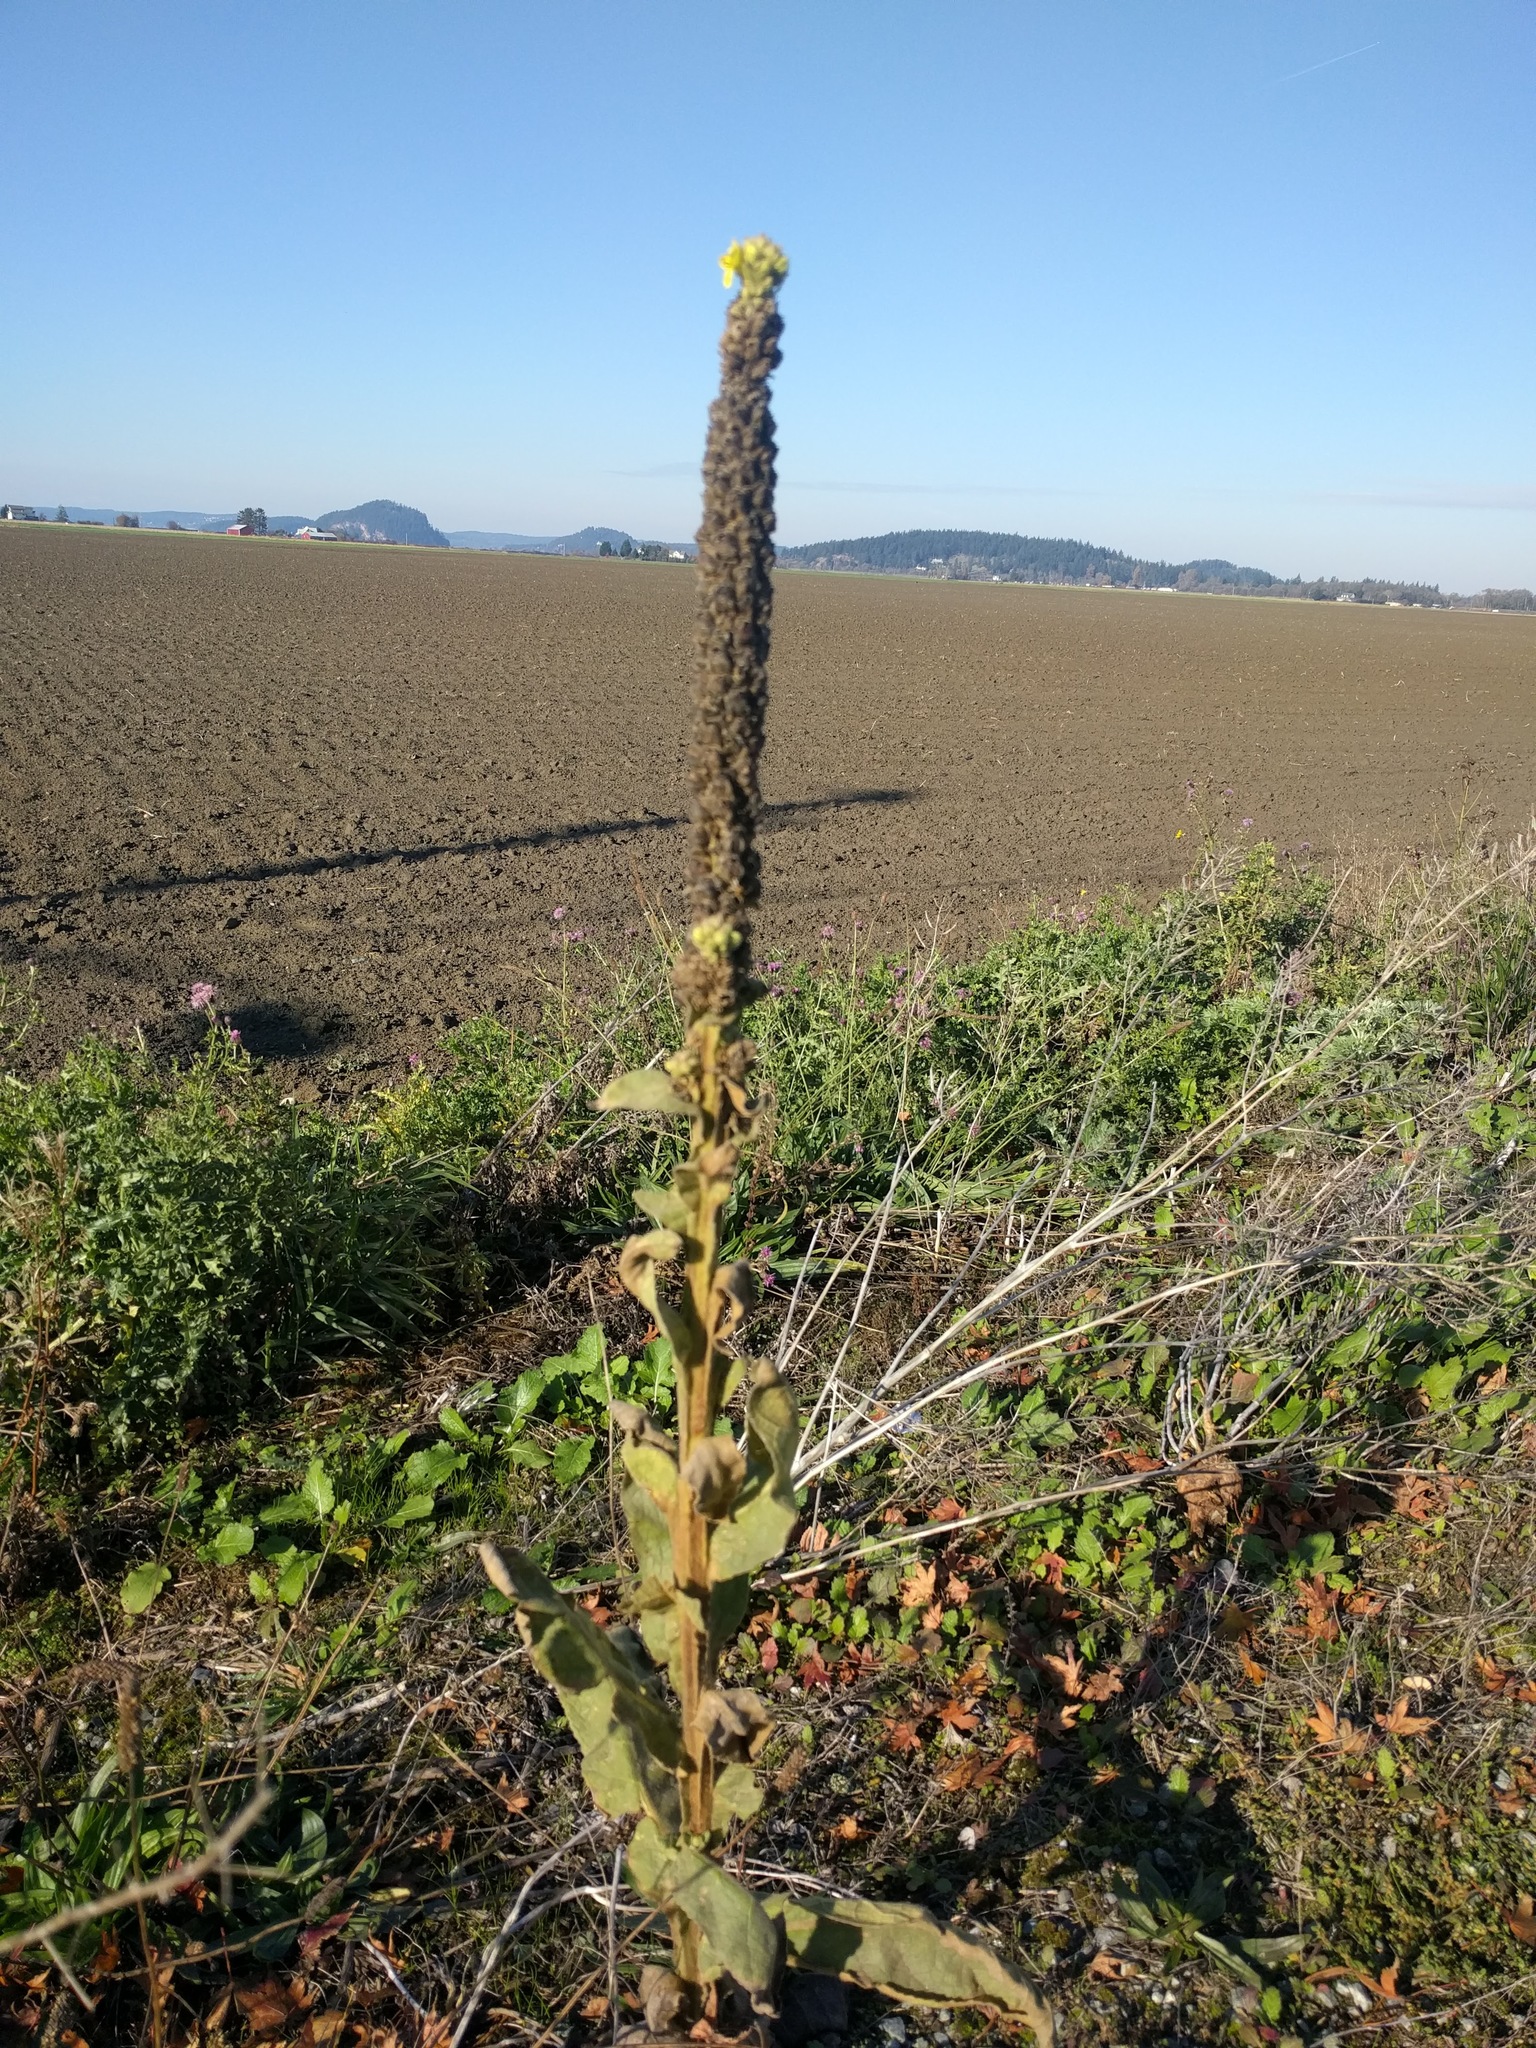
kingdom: Plantae
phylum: Tracheophyta
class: Magnoliopsida
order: Lamiales
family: Scrophulariaceae
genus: Verbascum
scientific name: Verbascum thapsus
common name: Common mullein
